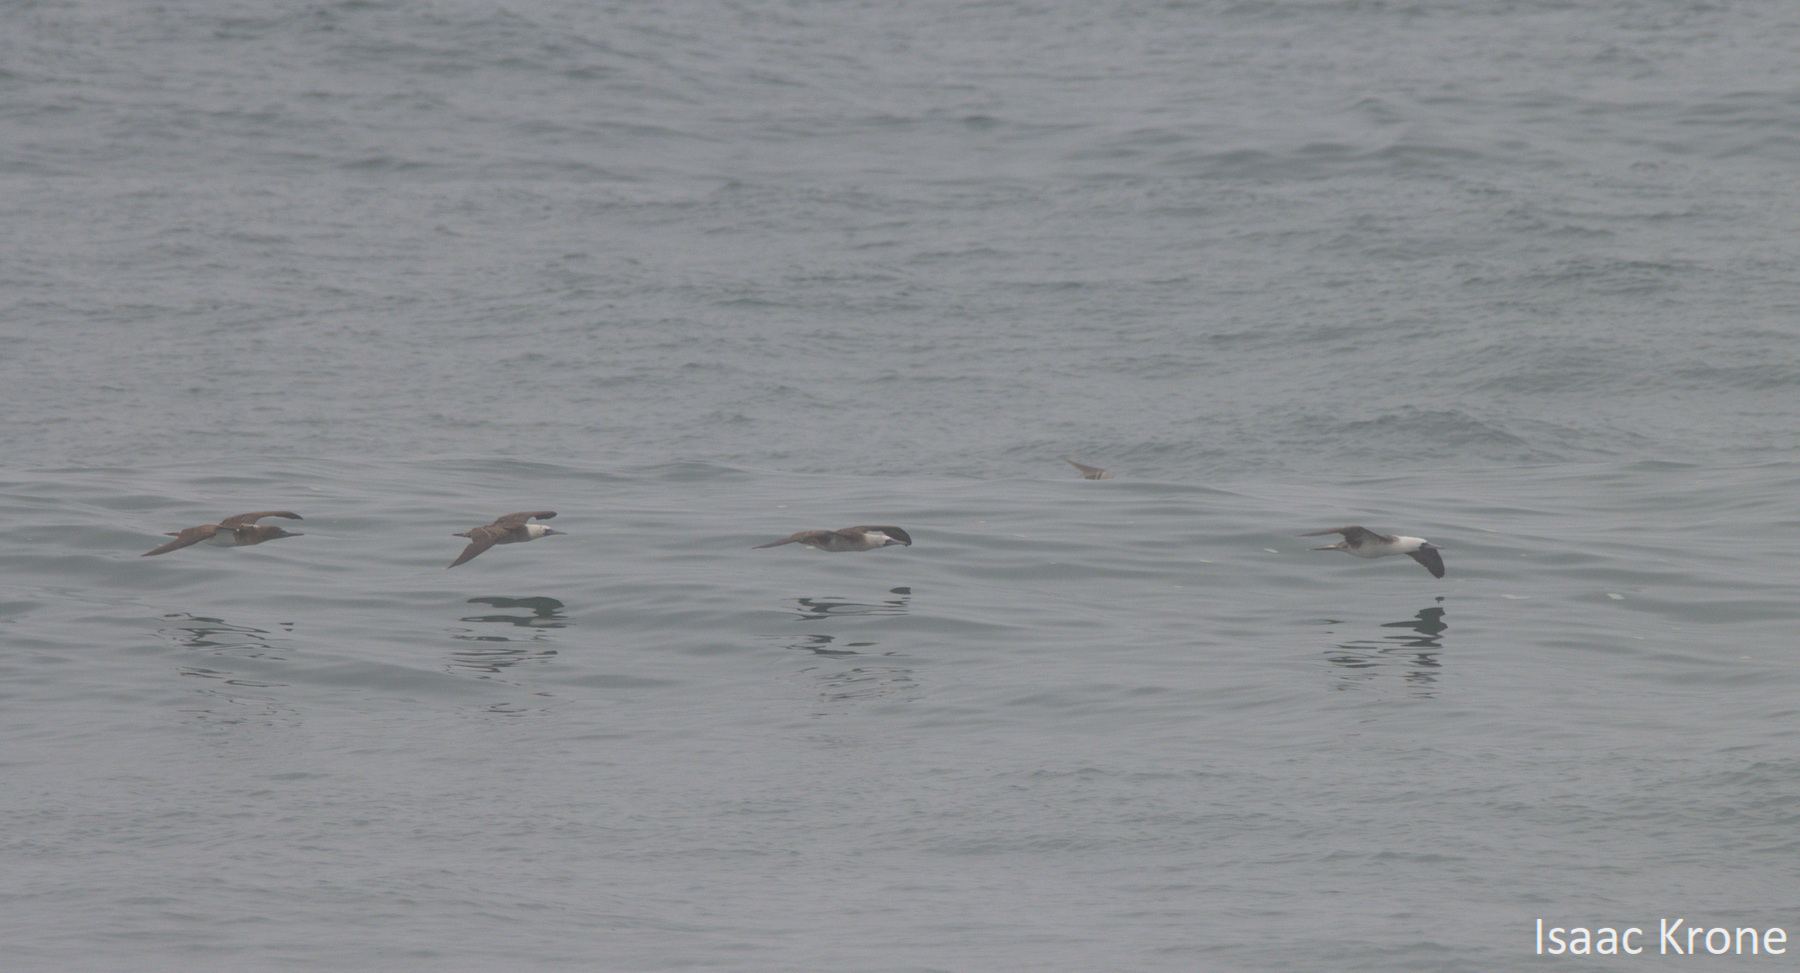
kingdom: Animalia
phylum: Chordata
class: Aves
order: Suliformes
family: Sulidae
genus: Sula
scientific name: Sula variegata
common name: Peruvian booby
